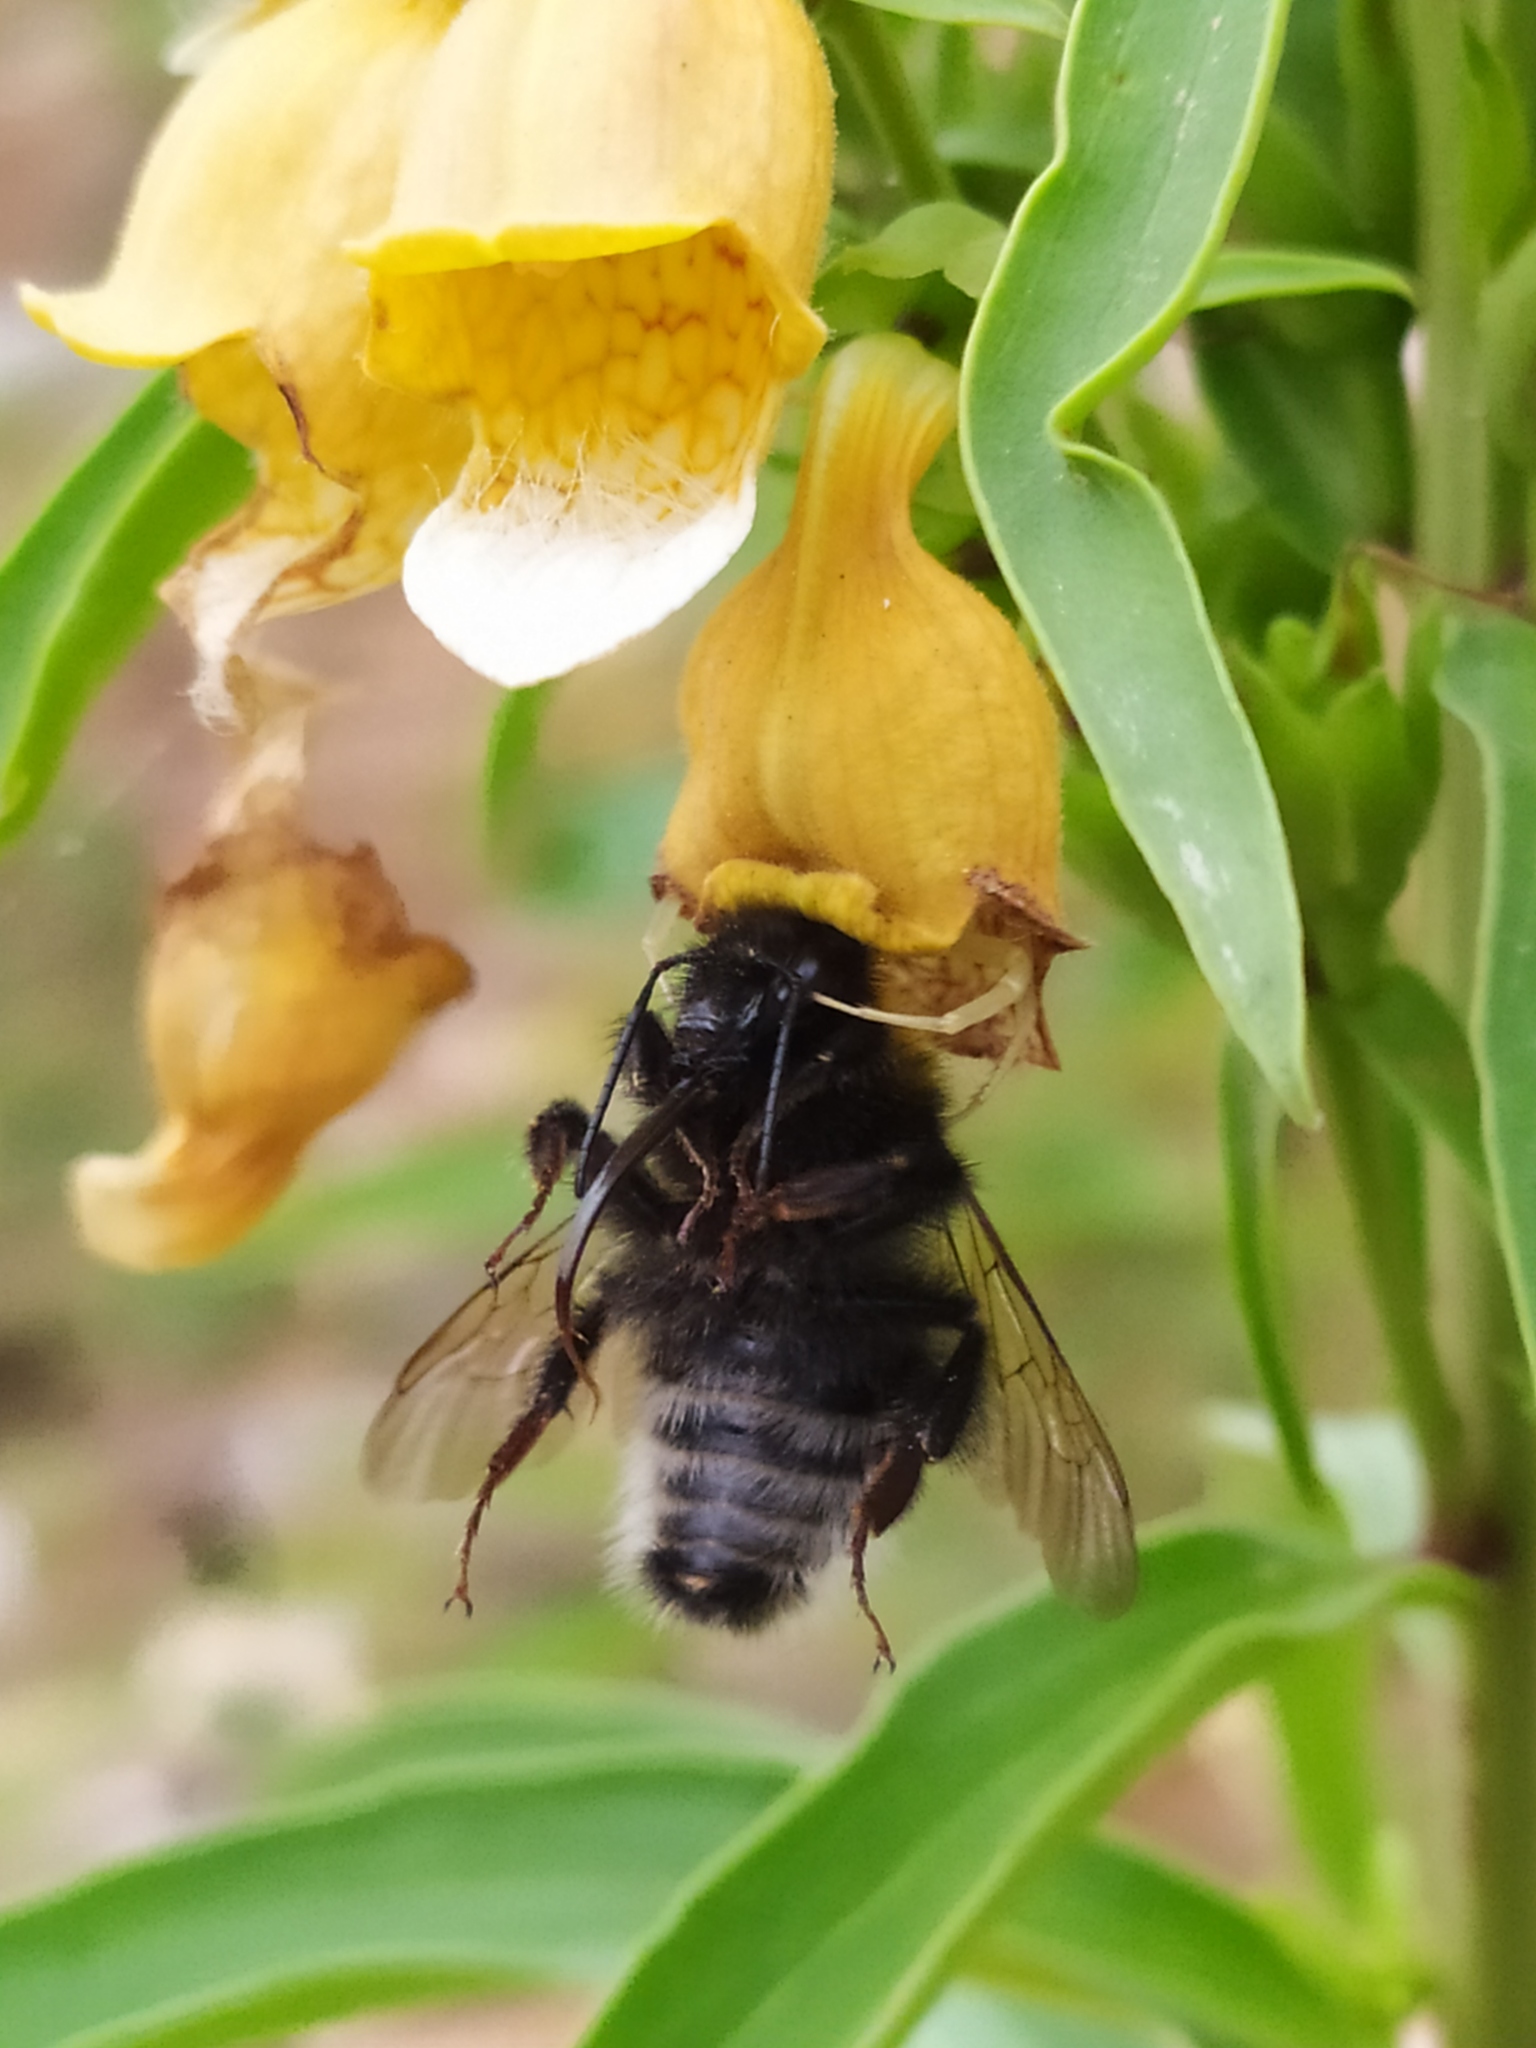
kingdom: Plantae
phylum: Tracheophyta
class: Magnoliopsida
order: Lamiales
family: Plantaginaceae
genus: Digitalis
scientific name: Digitalis laevigata
